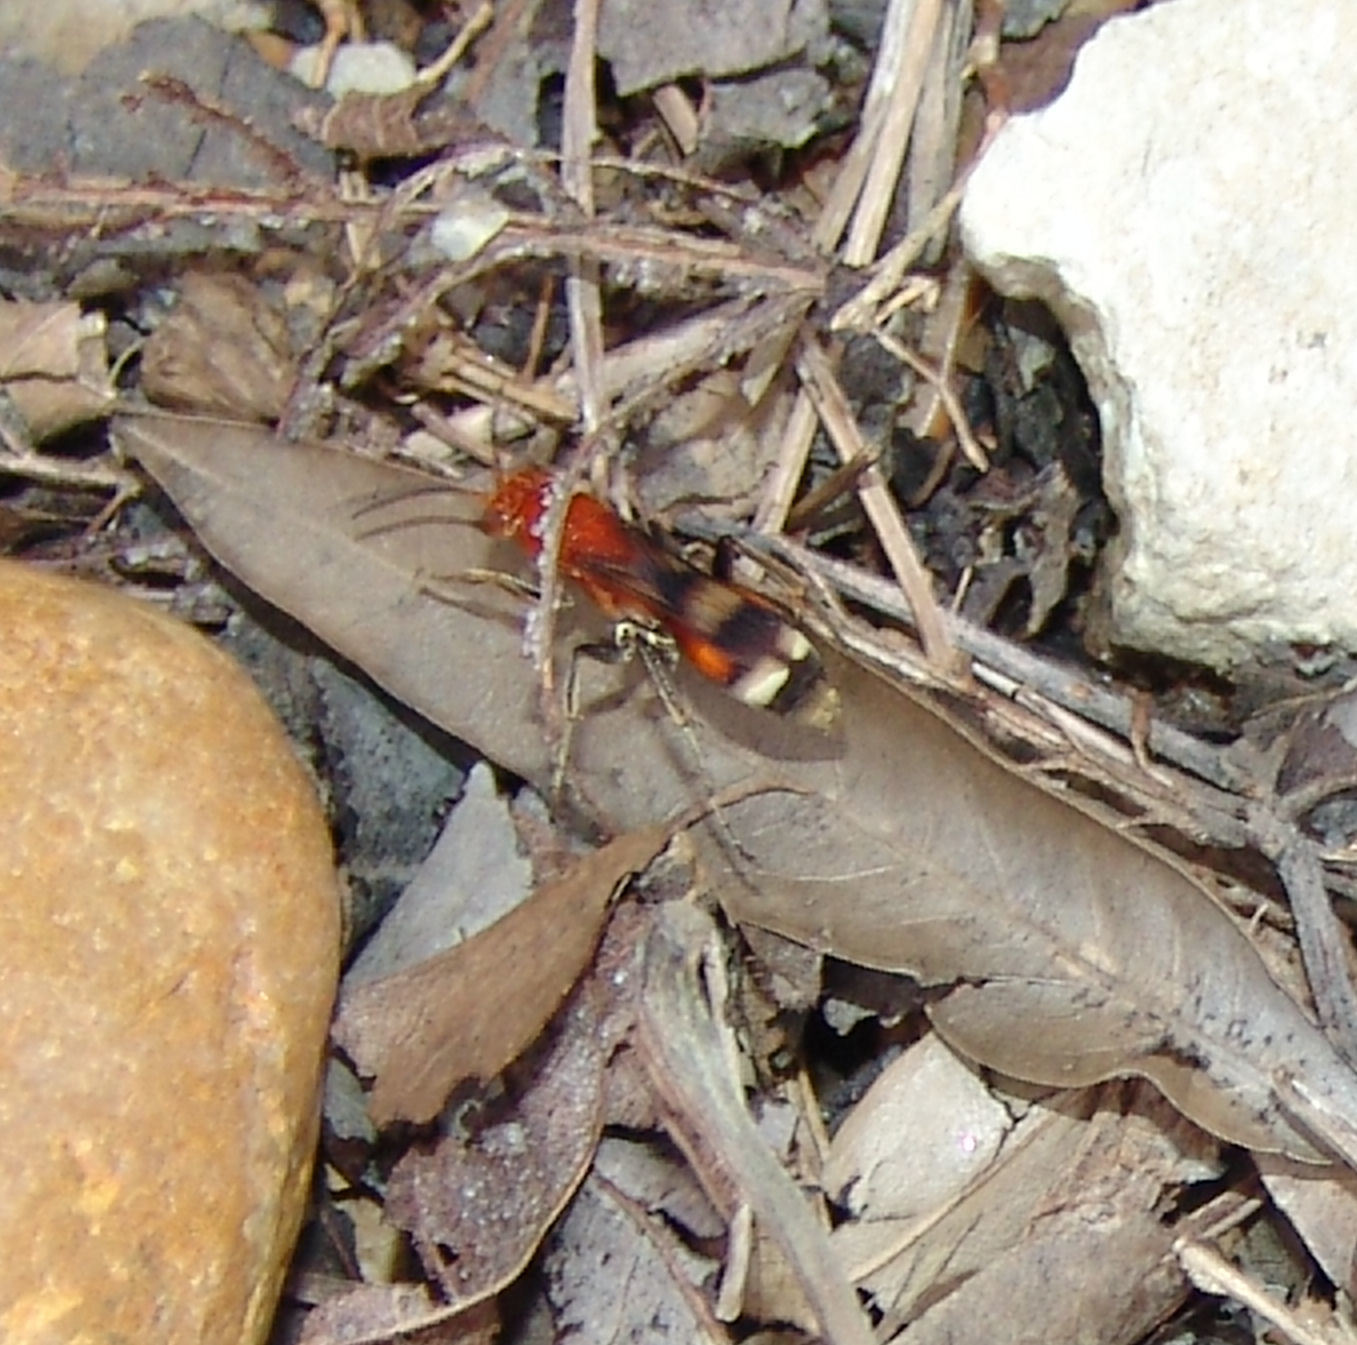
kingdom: Animalia
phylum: Arthropoda
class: Insecta
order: Hymenoptera
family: Pompilidae
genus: Psorthaspis
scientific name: Psorthaspis legata
